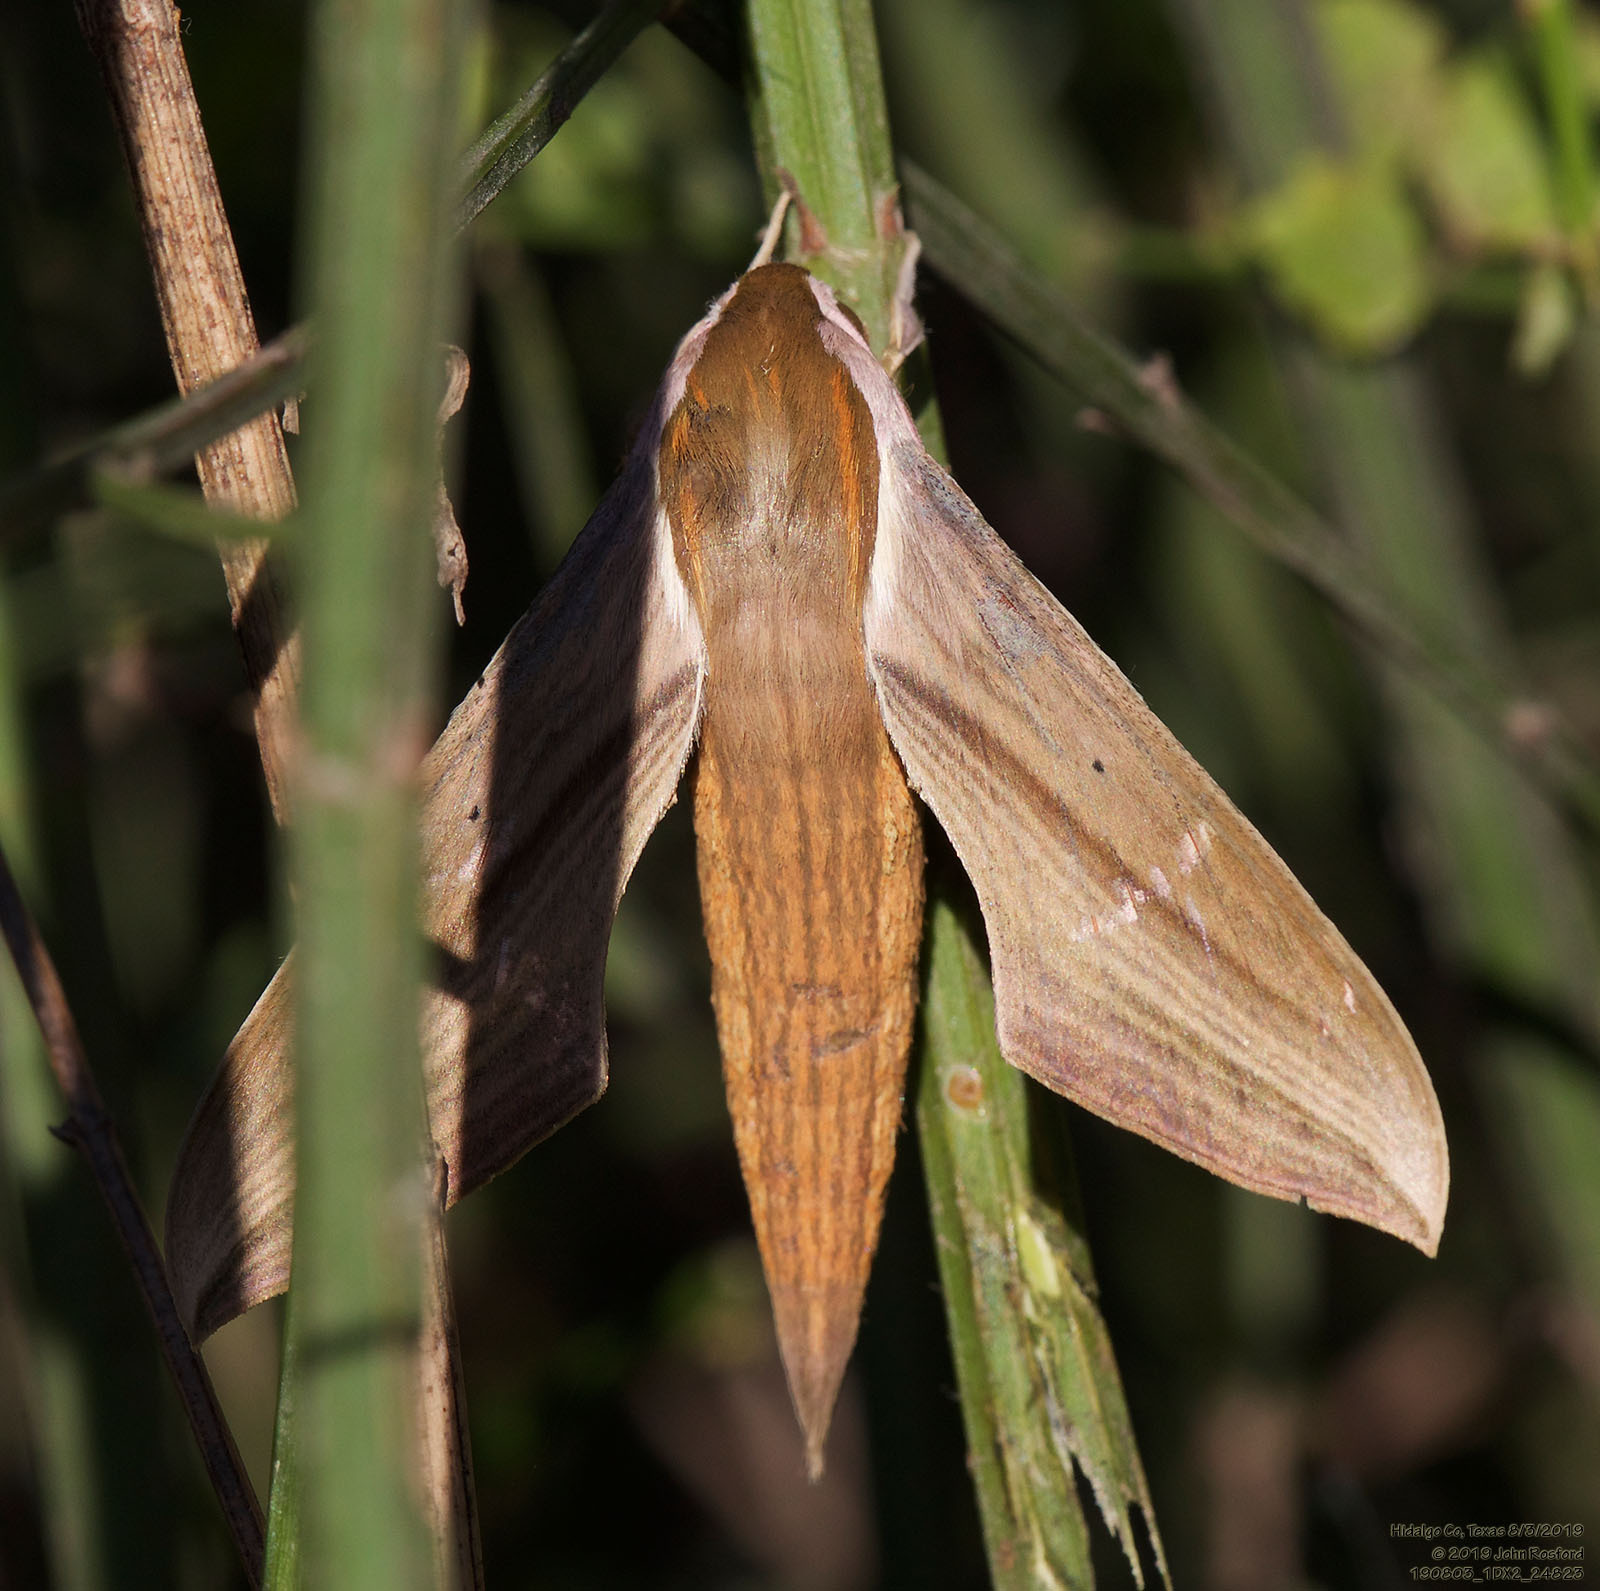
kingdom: Animalia
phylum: Arthropoda
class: Insecta
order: Lepidoptera
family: Sphingidae
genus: Xylophanes
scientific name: Xylophanes tersa
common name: Tersa sphinx
